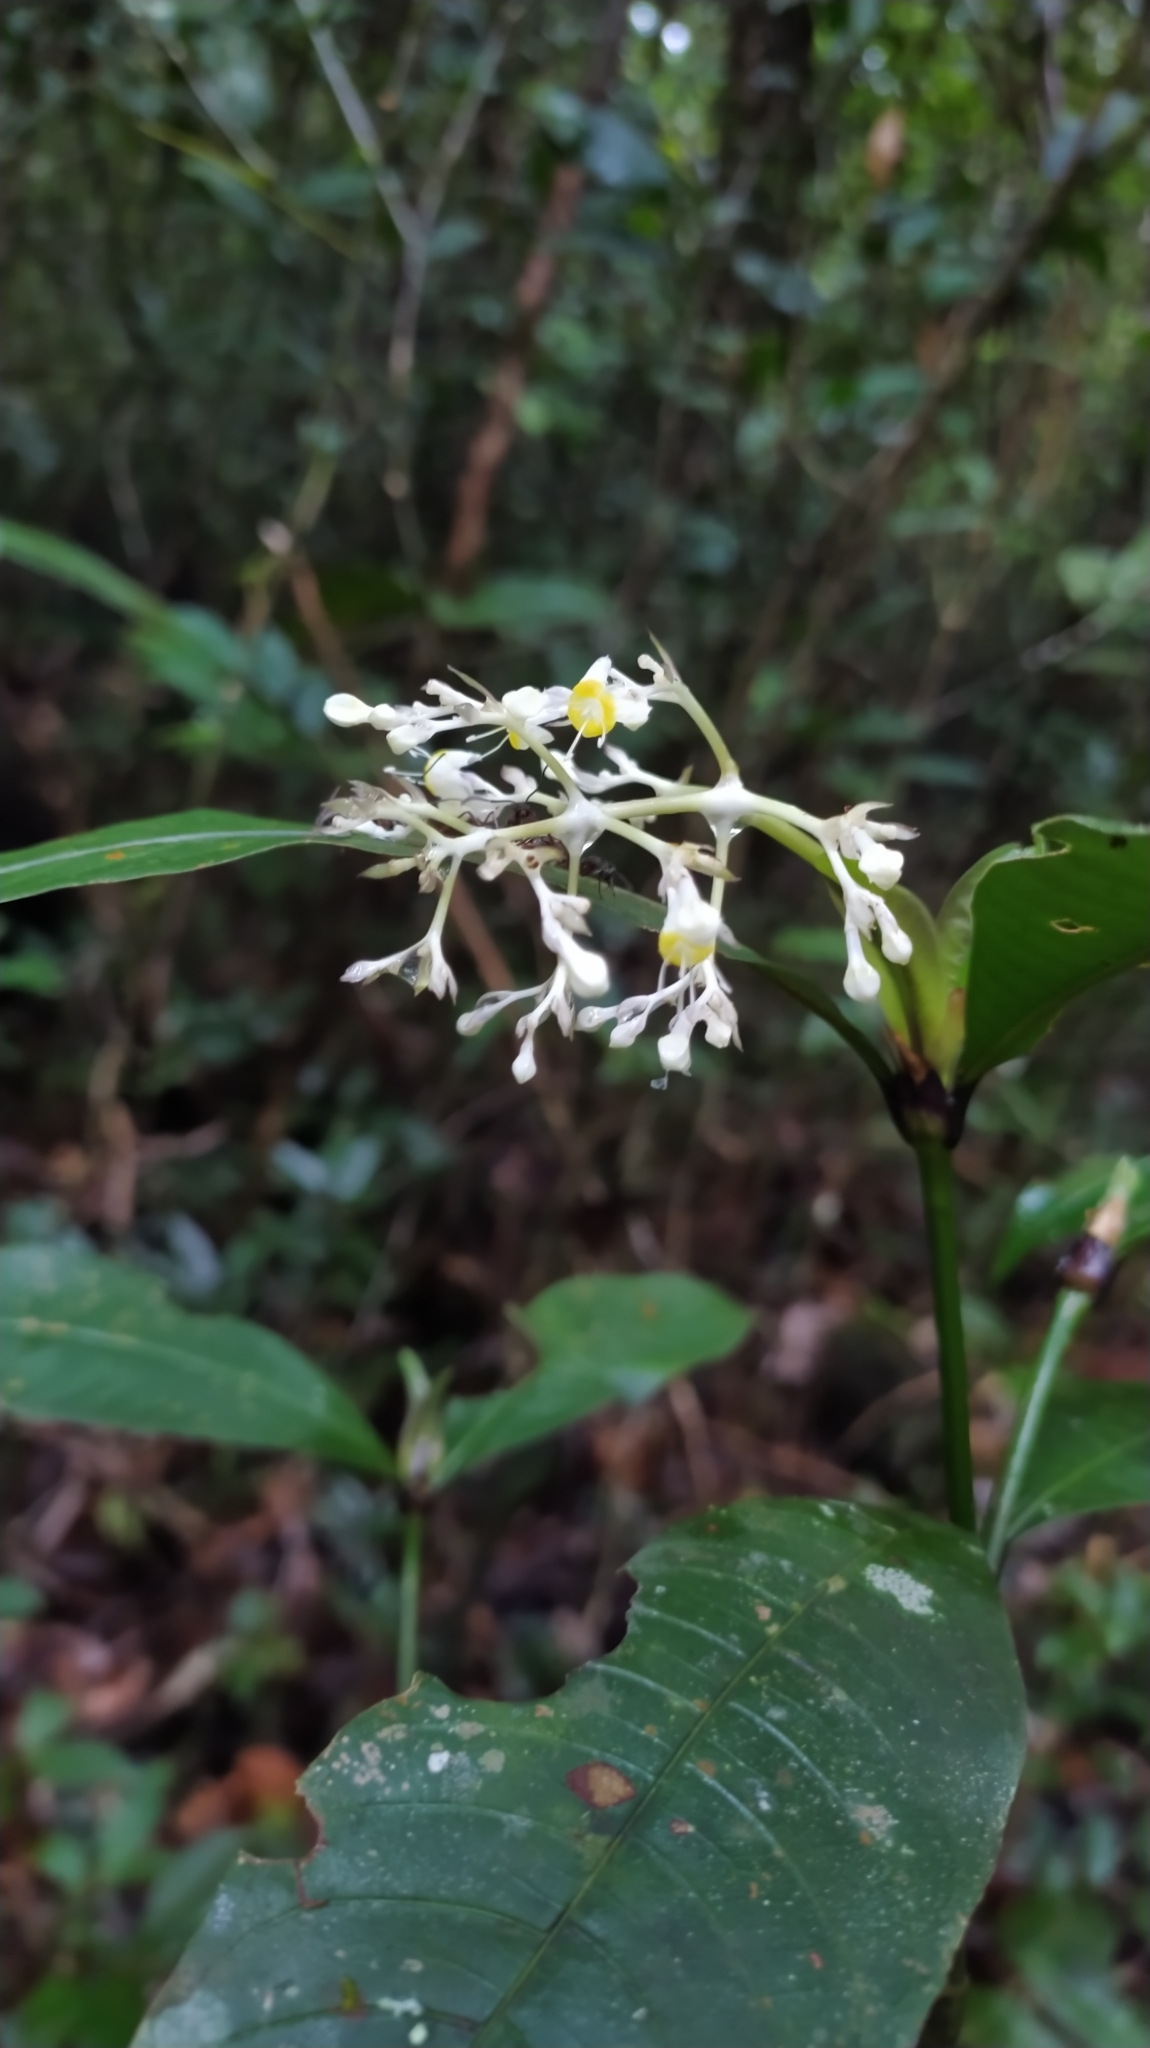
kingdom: Plantae
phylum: Tracheophyta
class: Magnoliopsida
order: Gentianales
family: Rubiaceae
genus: Palicourea
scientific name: Palicourea violacea
